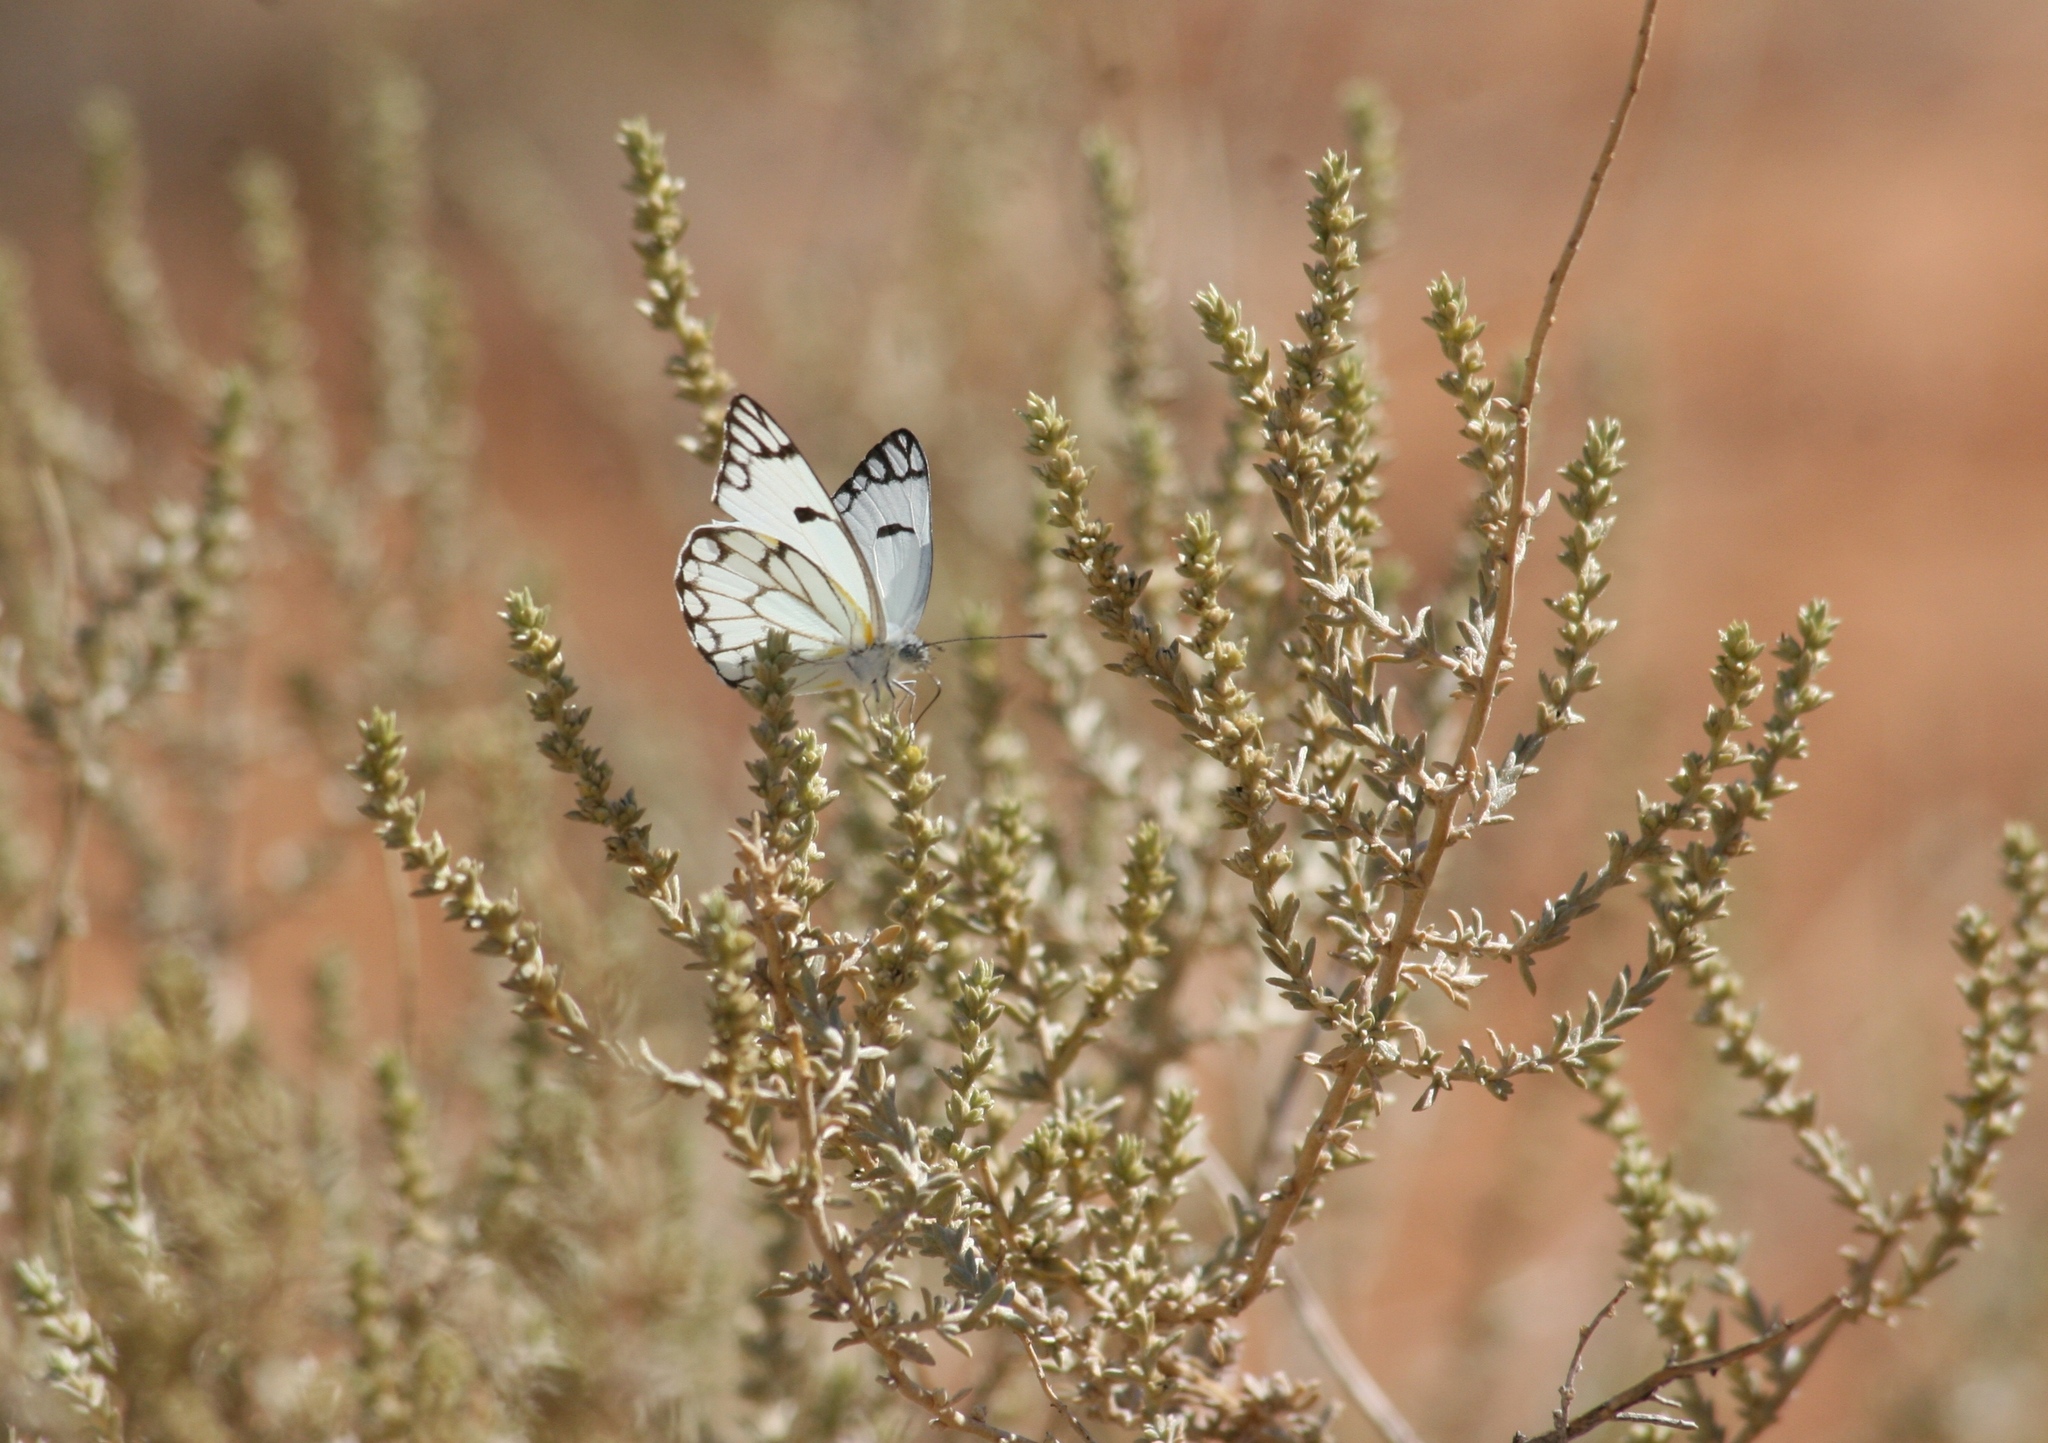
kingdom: Animalia
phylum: Arthropoda
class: Insecta
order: Lepidoptera
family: Pieridae
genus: Belenois
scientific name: Belenois aurota
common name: Brown-veined white
